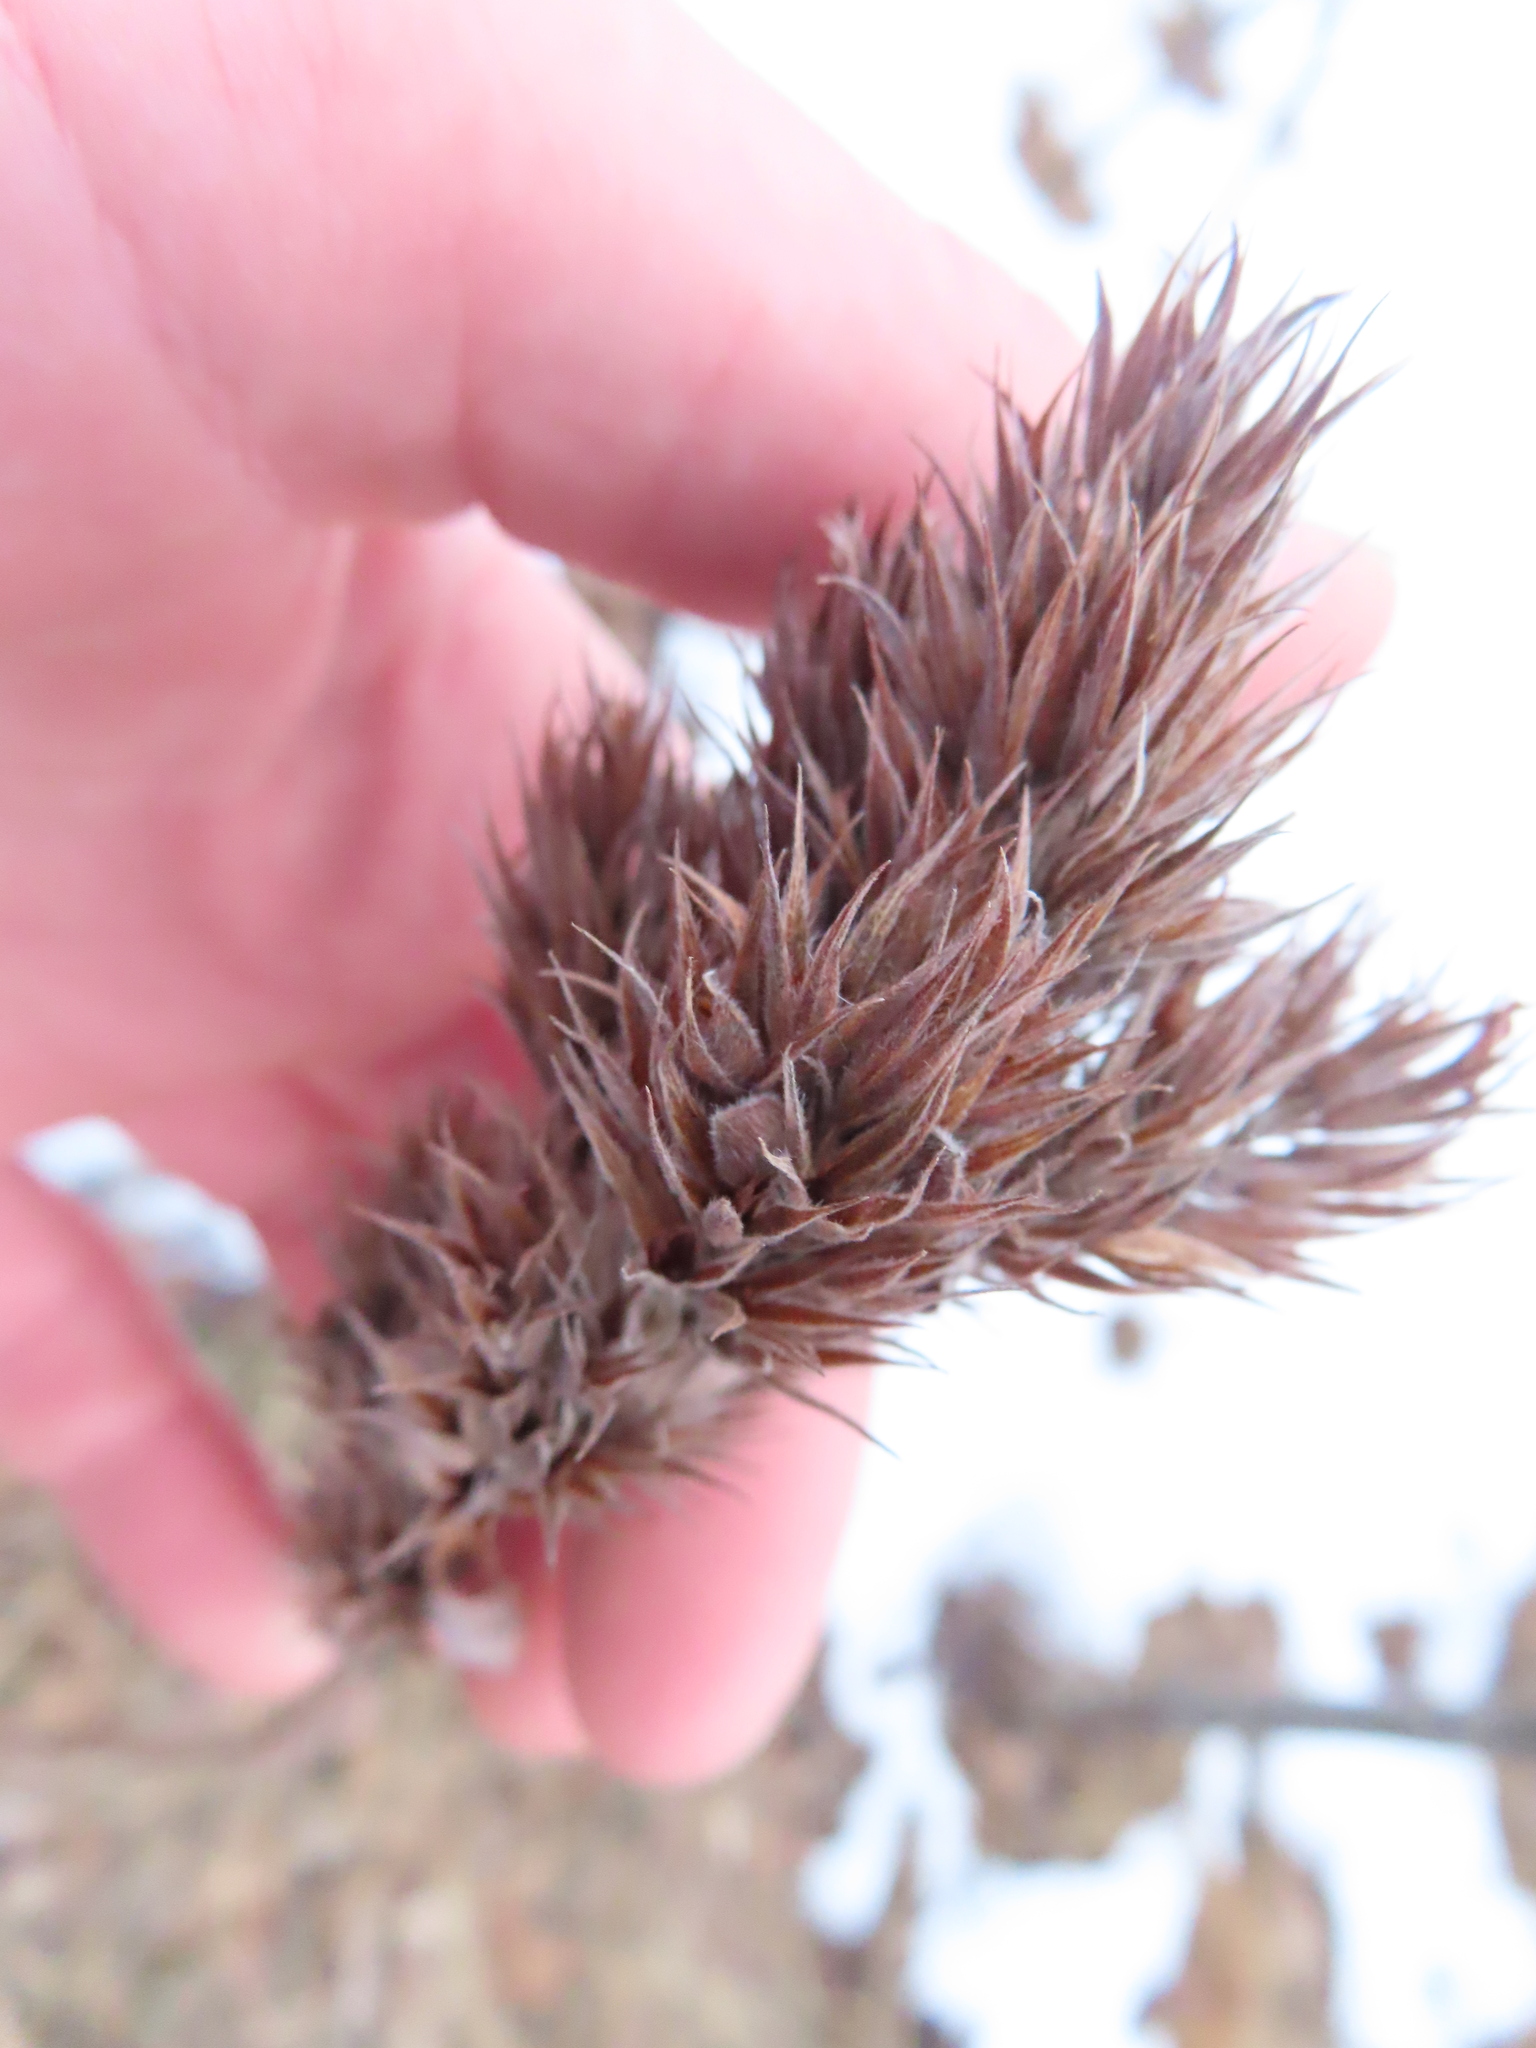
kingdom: Plantae
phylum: Tracheophyta
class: Magnoliopsida
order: Fabales
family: Fabaceae
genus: Lespedeza
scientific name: Lespedeza capitata
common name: Dusty clover
